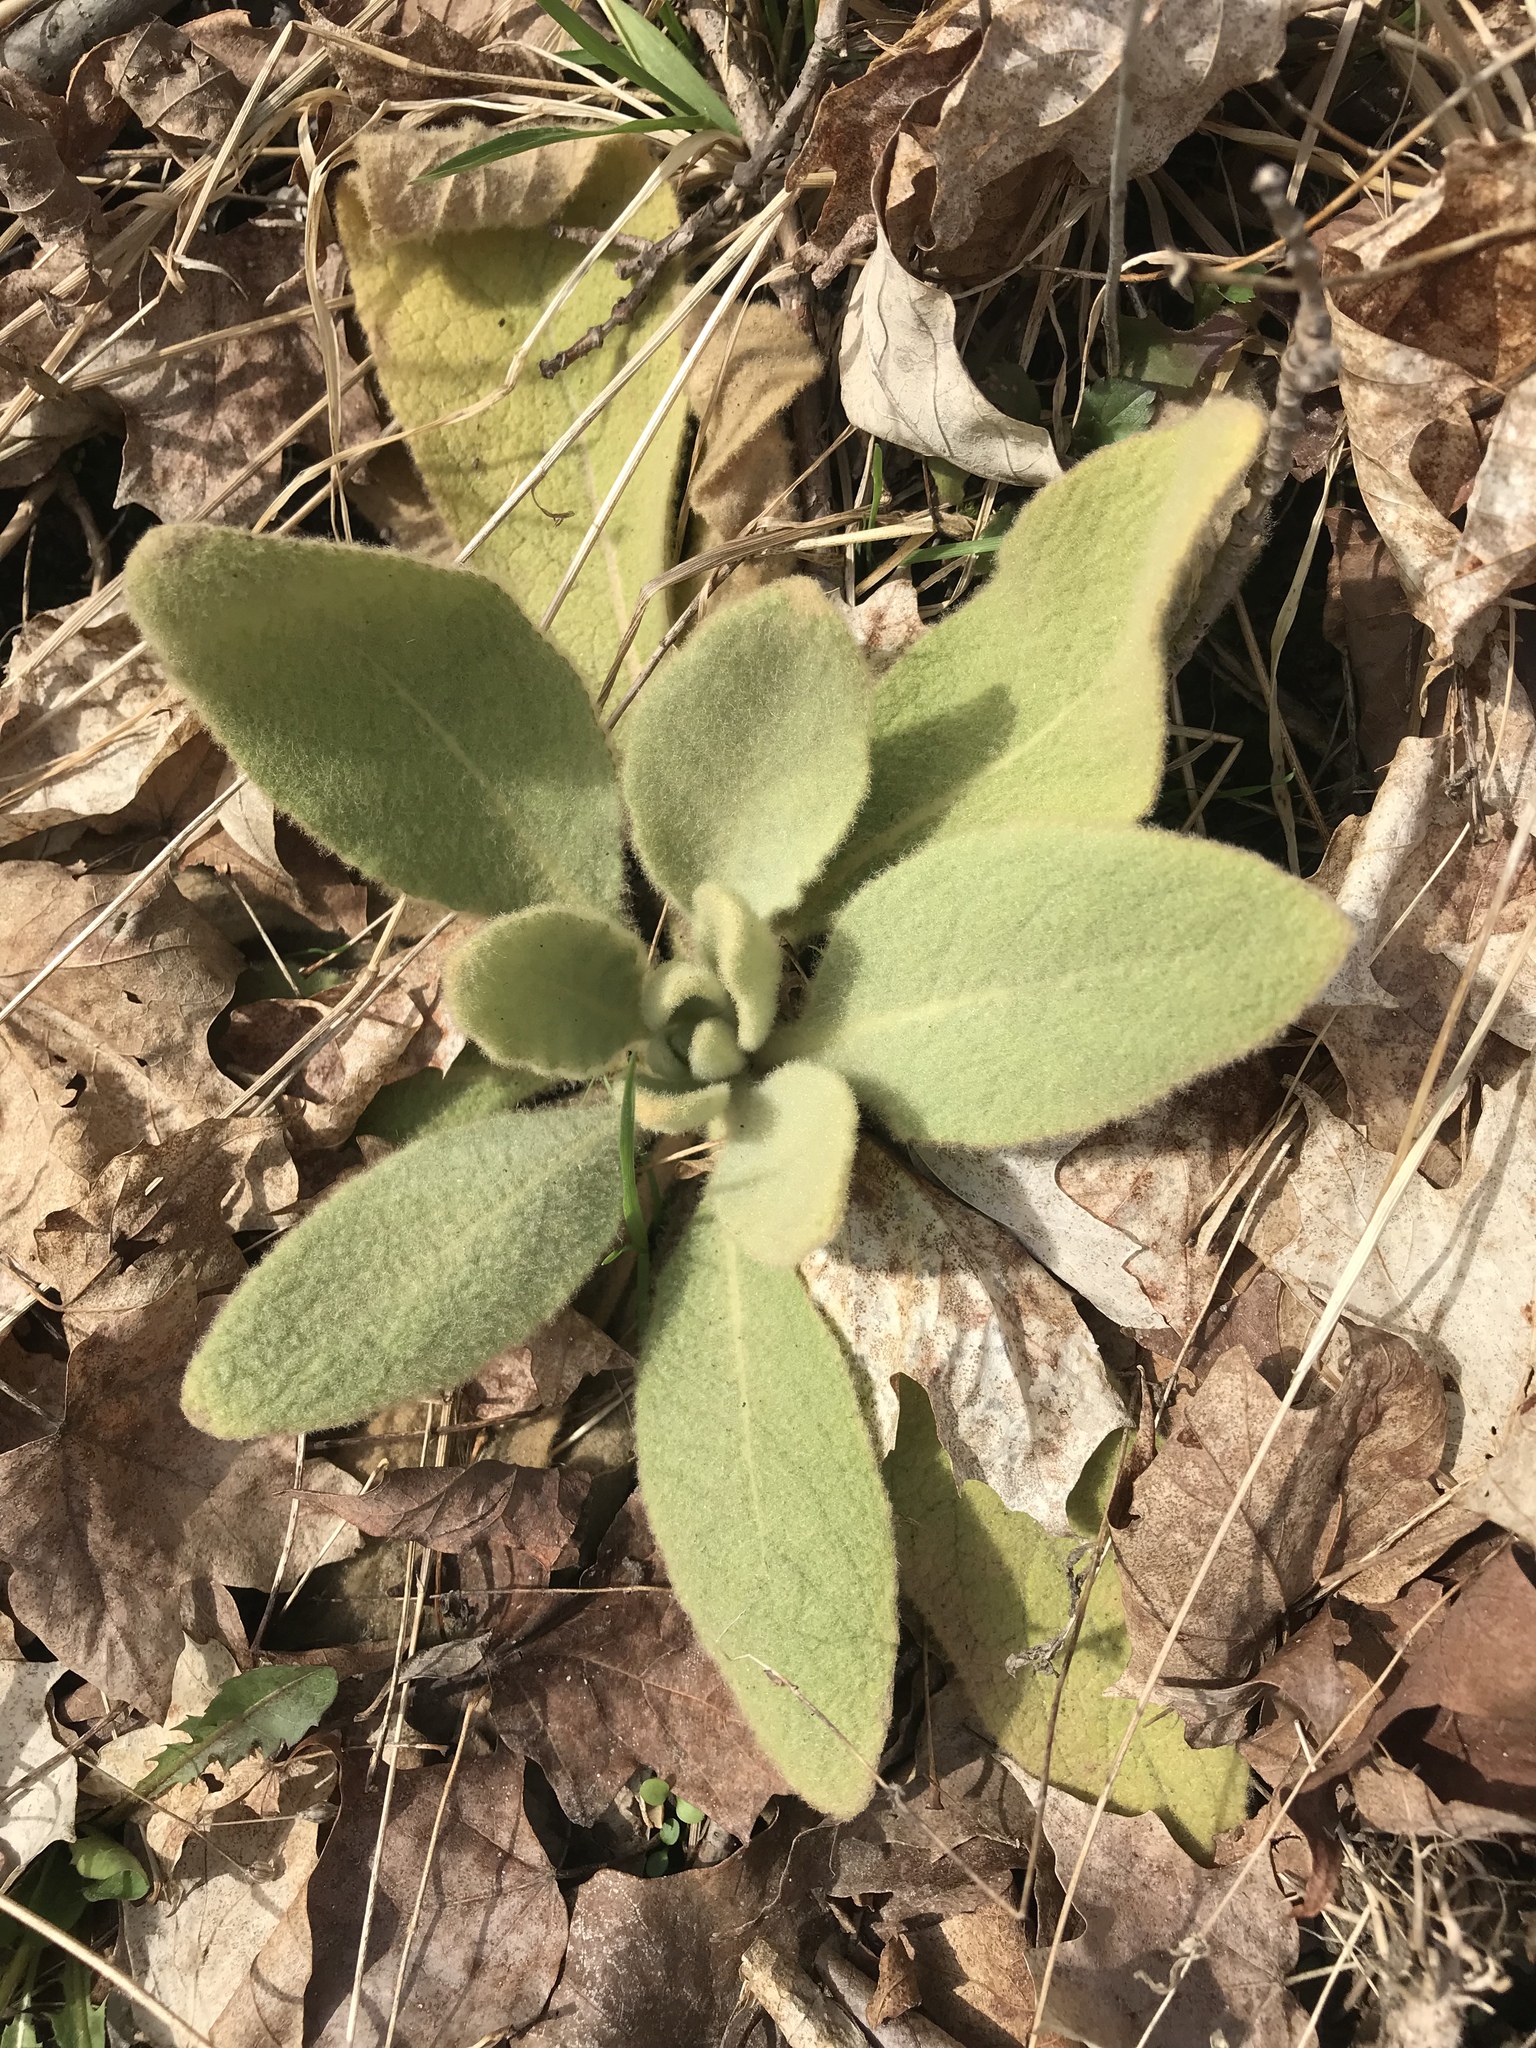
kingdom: Plantae
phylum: Tracheophyta
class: Magnoliopsida
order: Lamiales
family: Scrophulariaceae
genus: Verbascum
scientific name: Verbascum thapsus
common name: Common mullein
